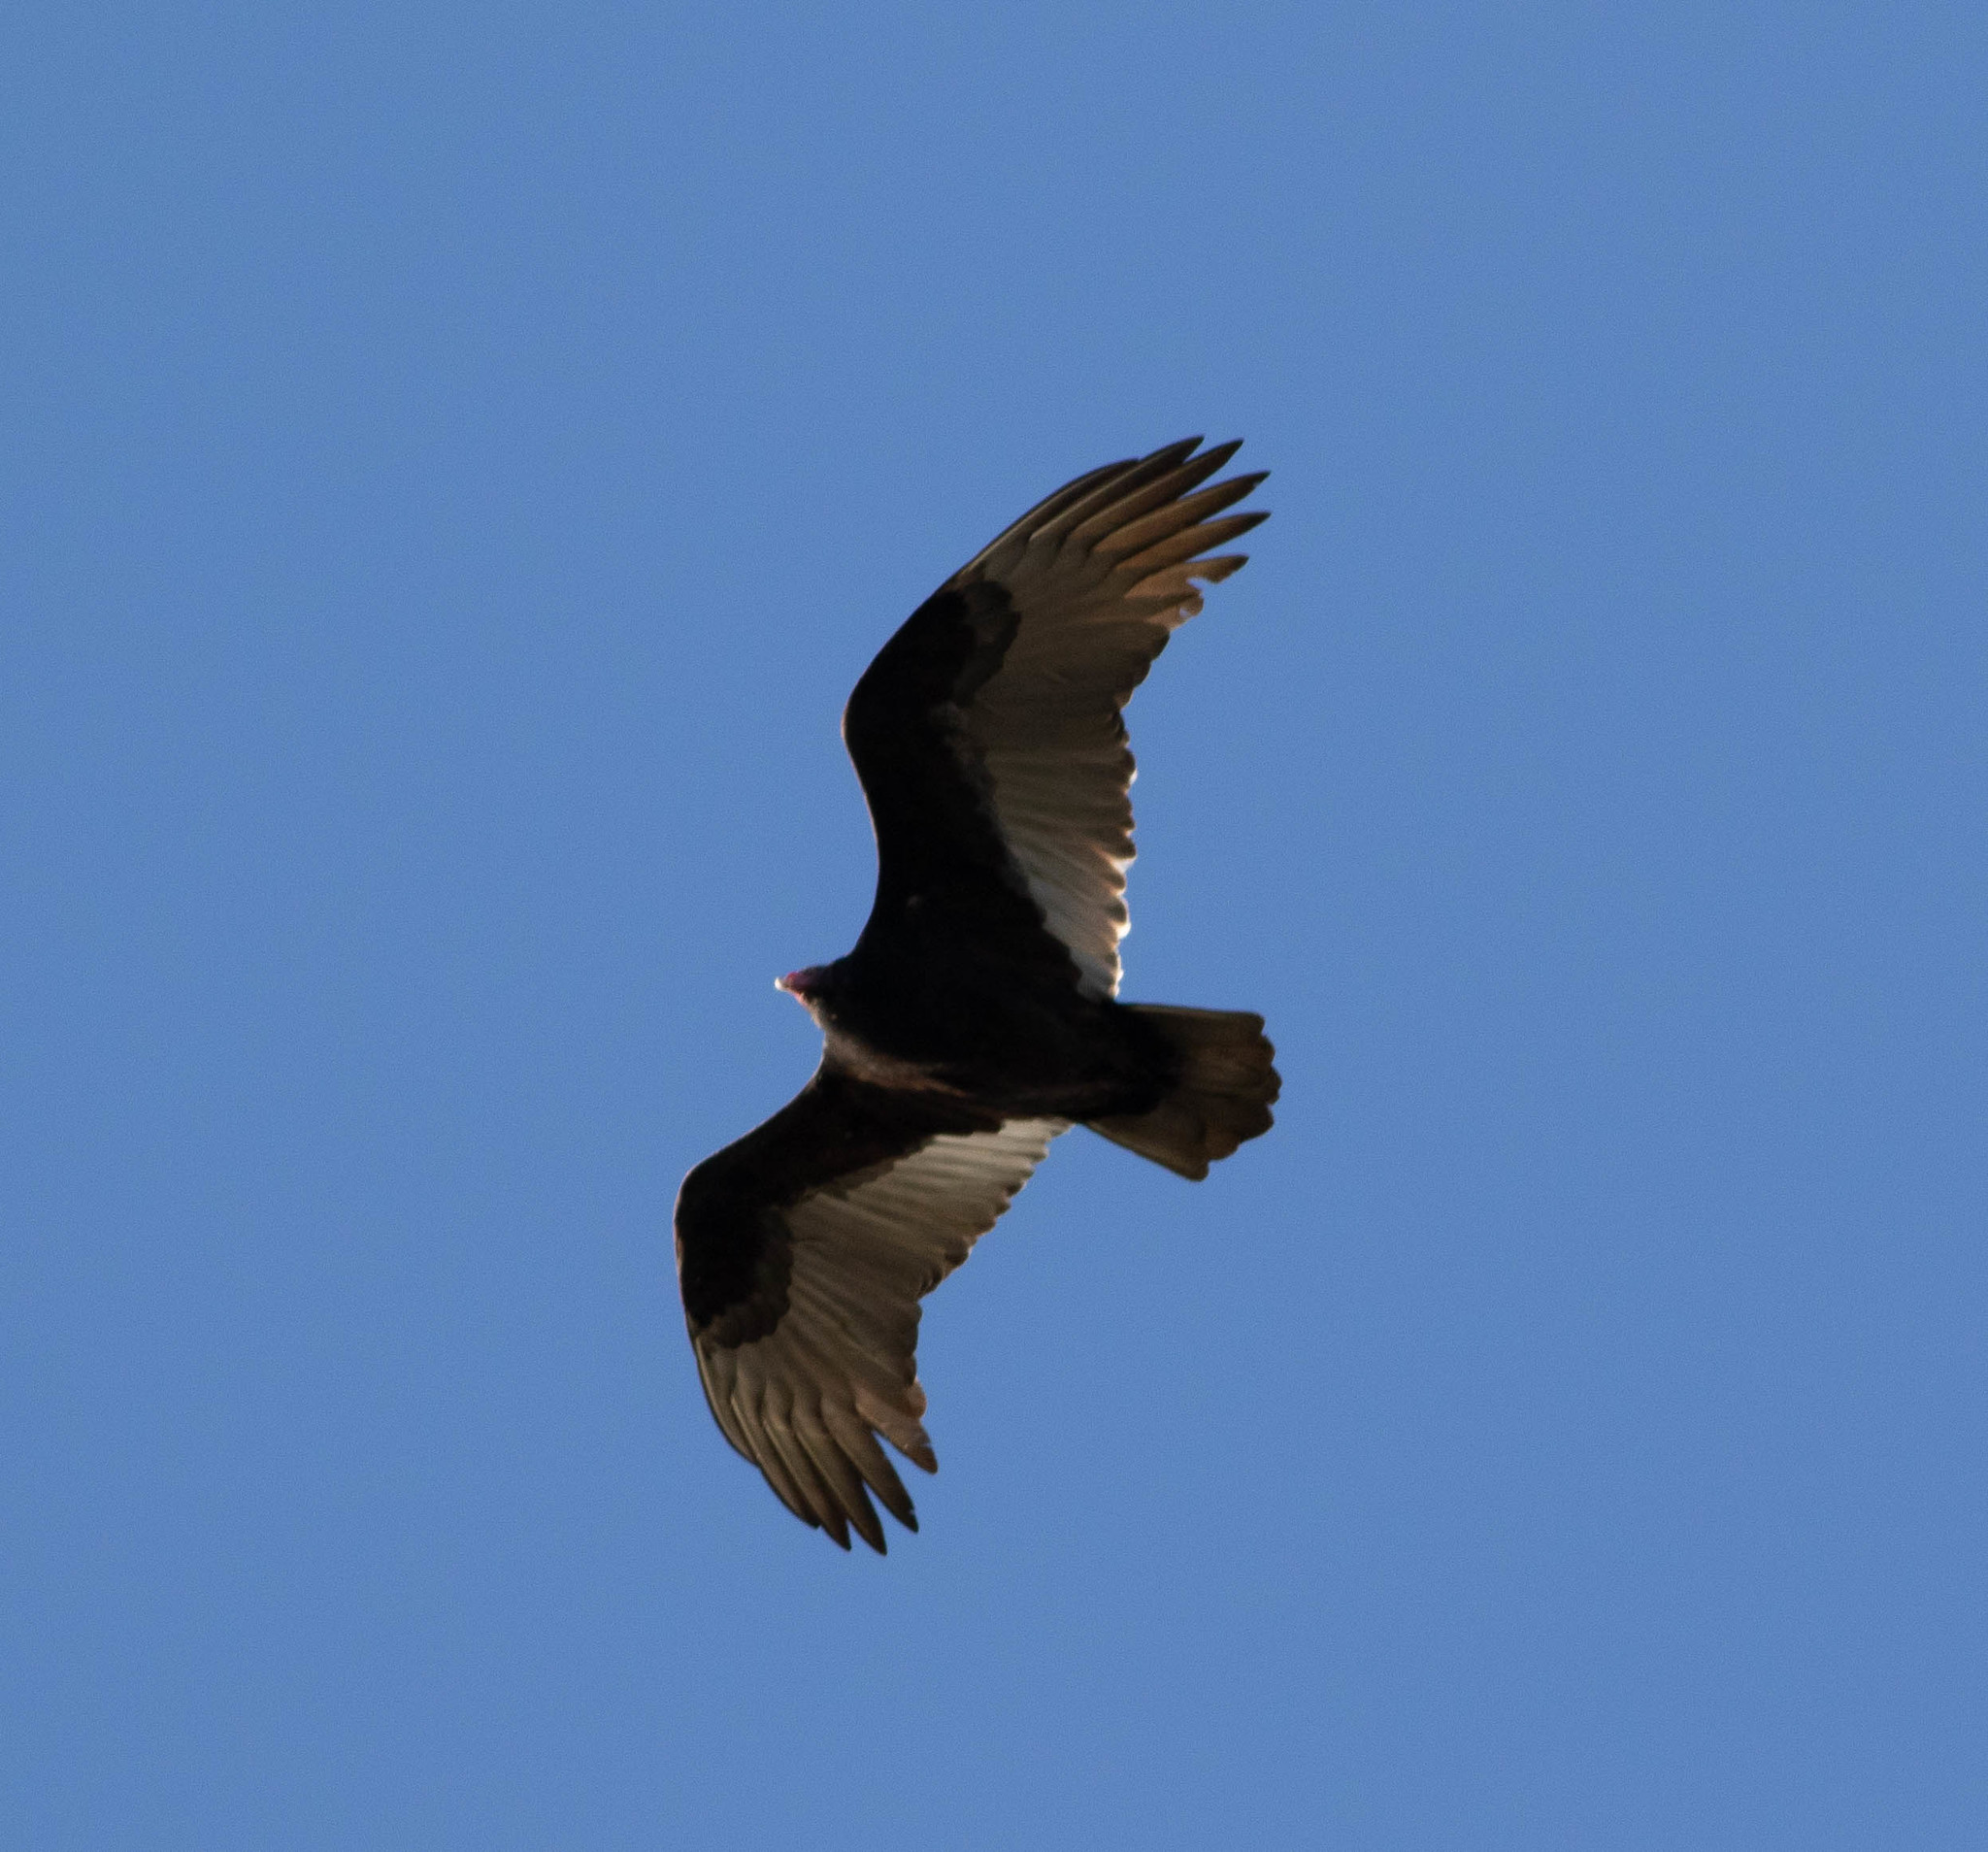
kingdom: Animalia
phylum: Chordata
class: Aves
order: Accipitriformes
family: Cathartidae
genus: Cathartes
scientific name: Cathartes aura
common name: Turkey vulture
